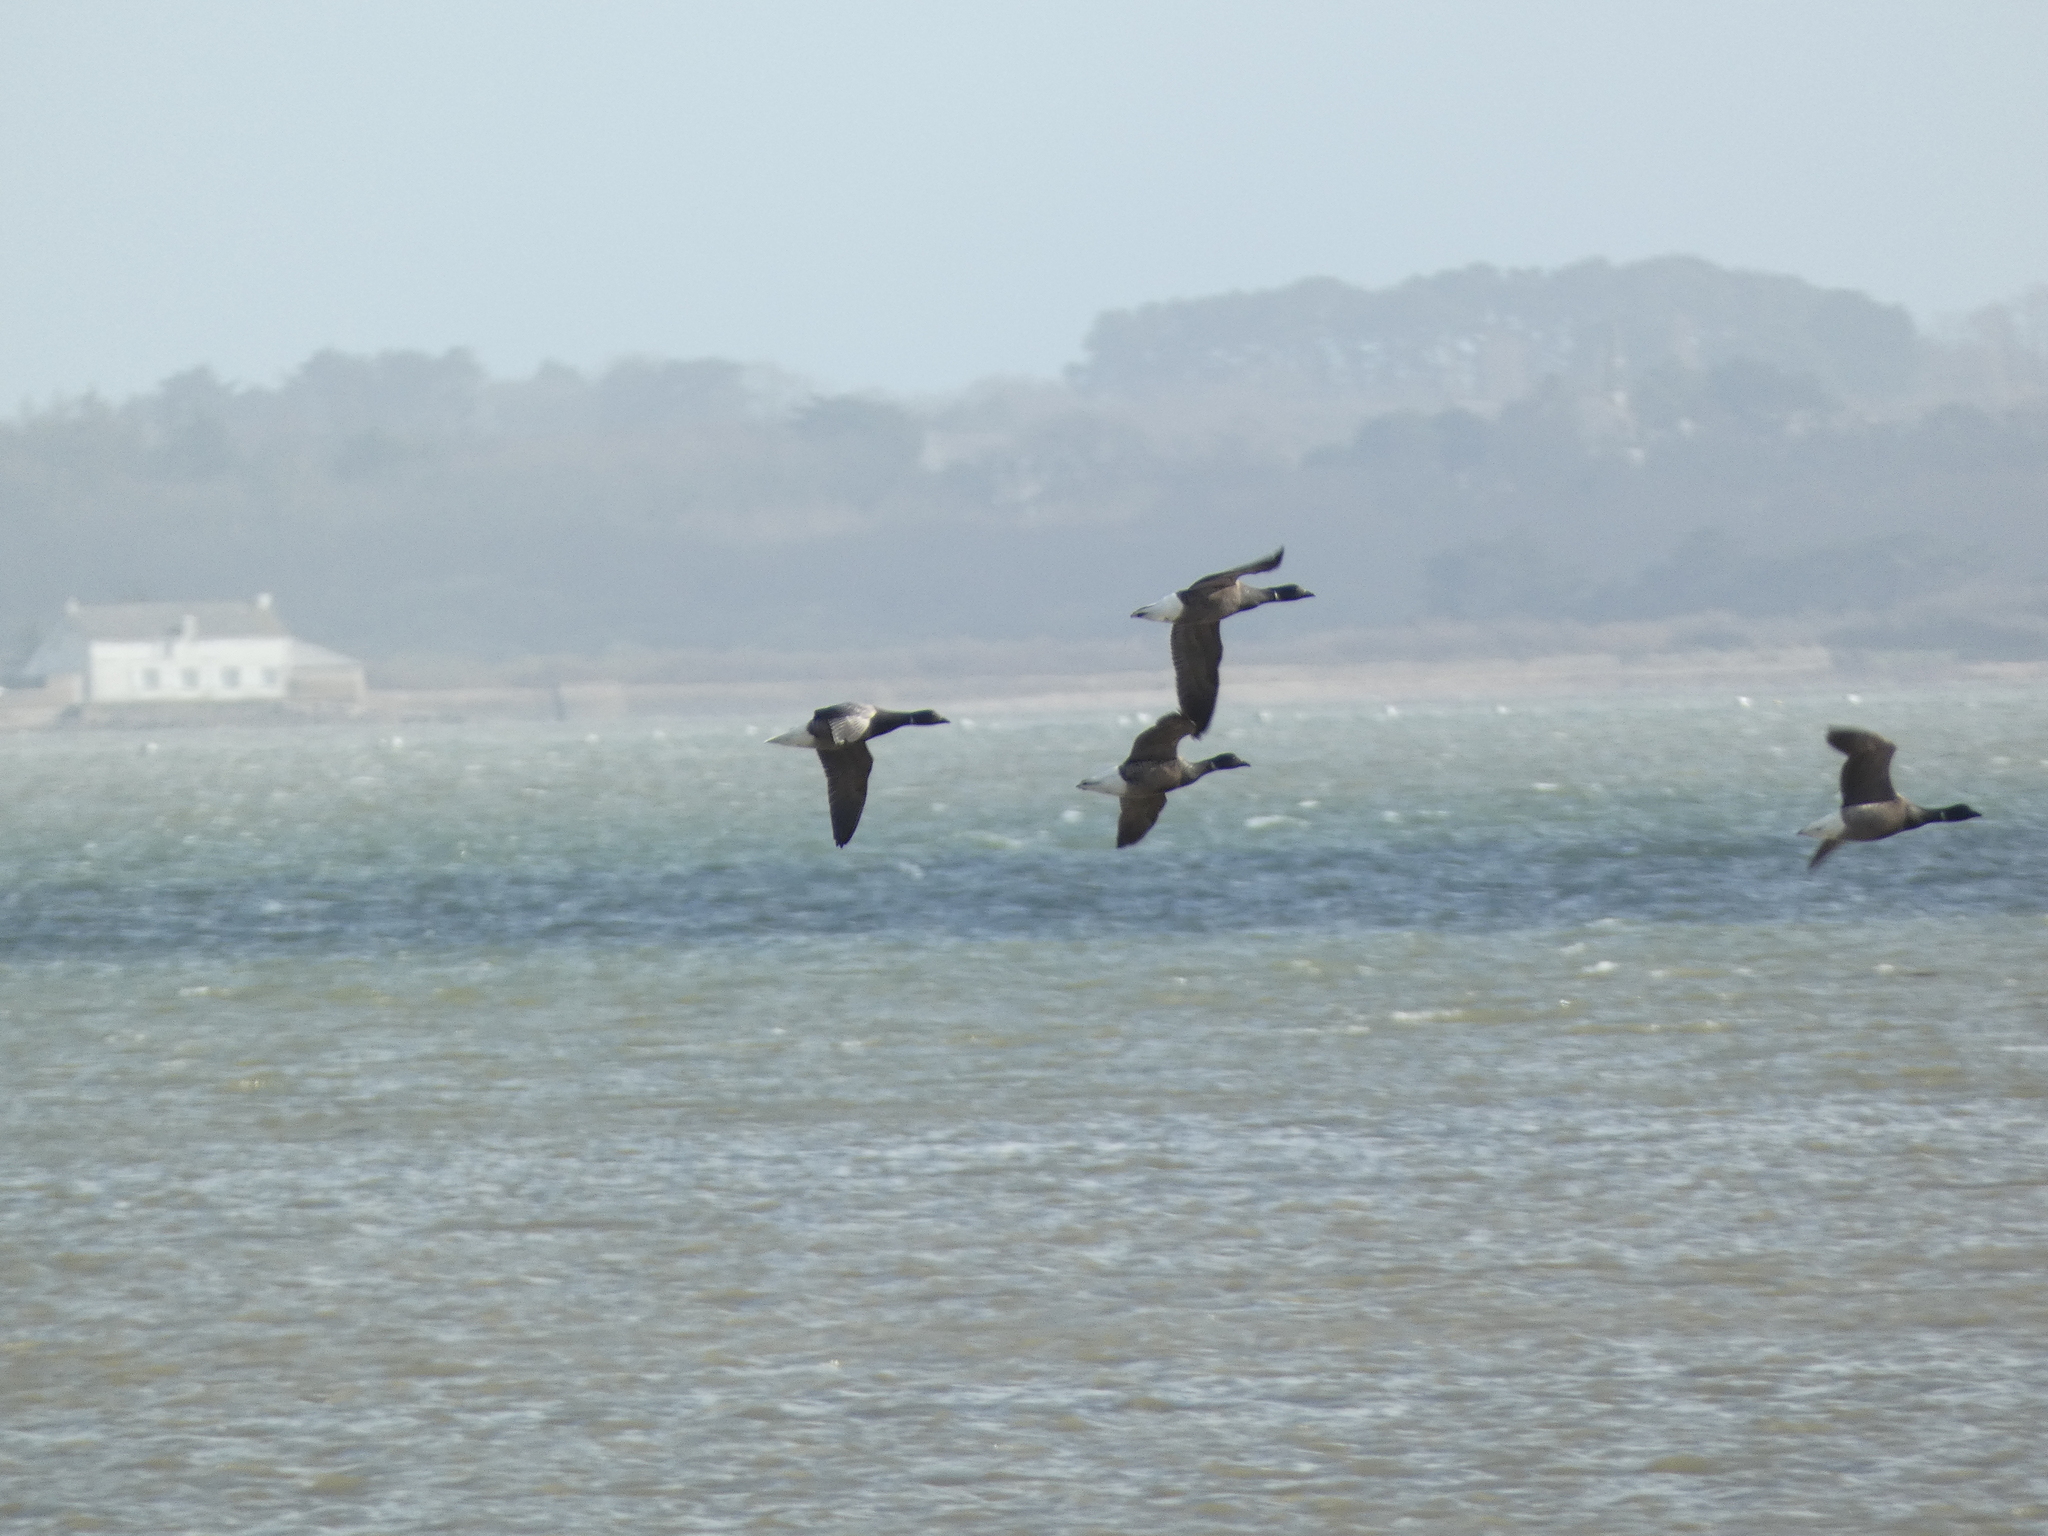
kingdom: Animalia
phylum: Chordata
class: Aves
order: Anseriformes
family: Anatidae
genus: Branta
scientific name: Branta bernicla
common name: Brant goose
